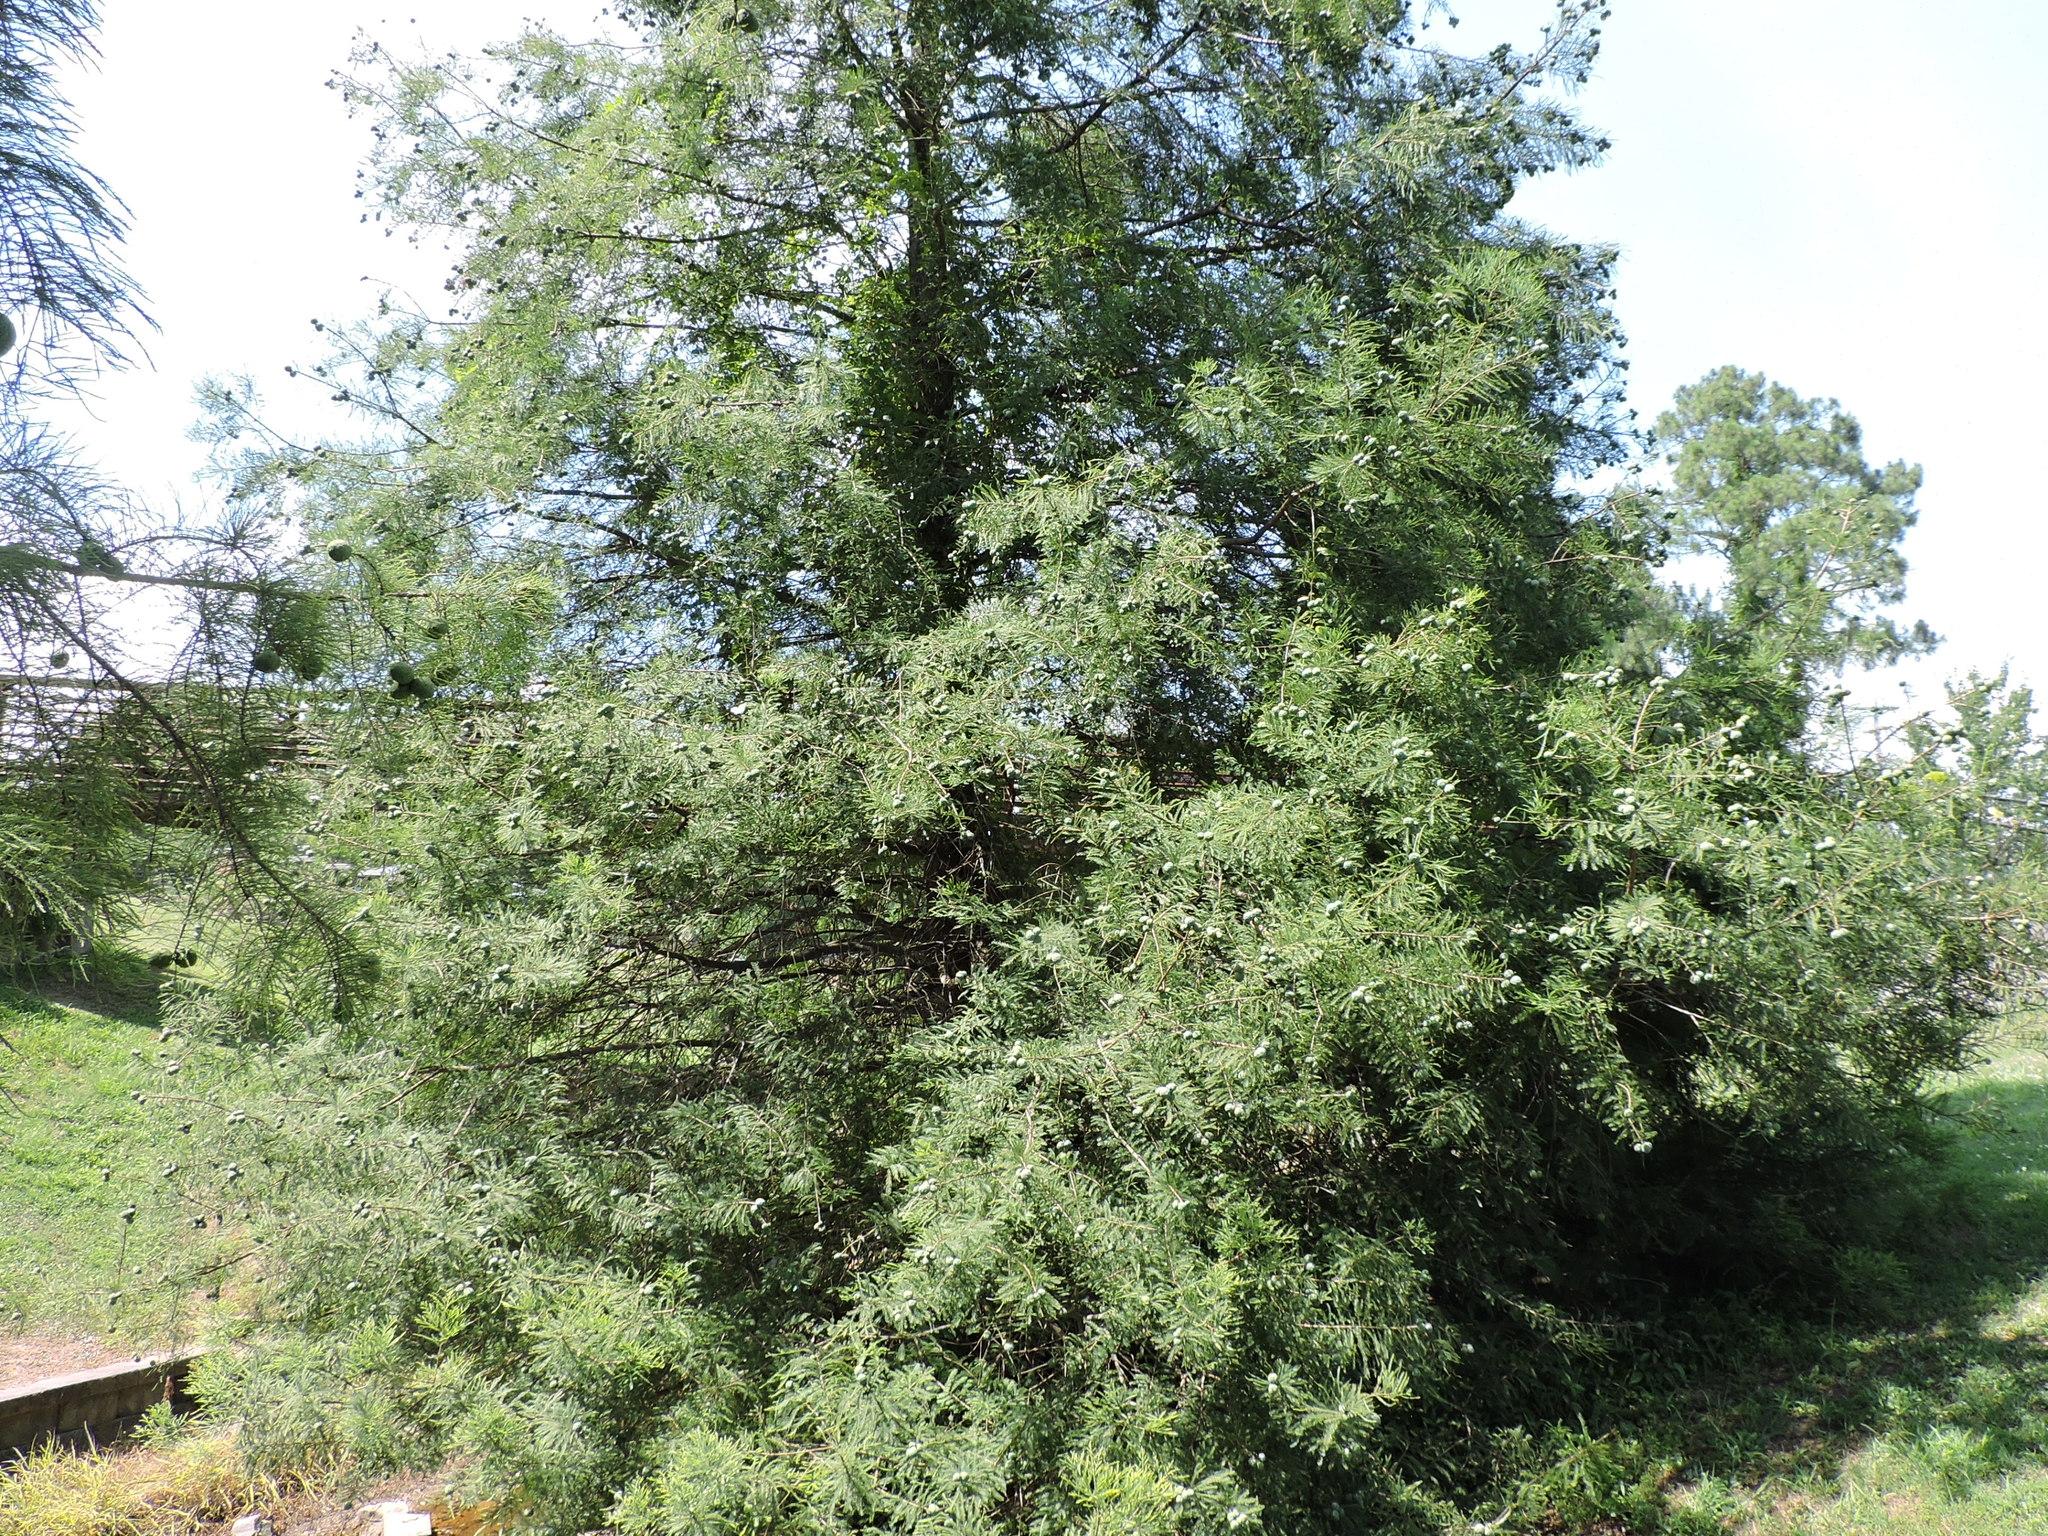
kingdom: Plantae
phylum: Tracheophyta
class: Pinopsida
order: Pinales
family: Cupressaceae
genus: Taxodium
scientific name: Taxodium distichum
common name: Bald cypress
